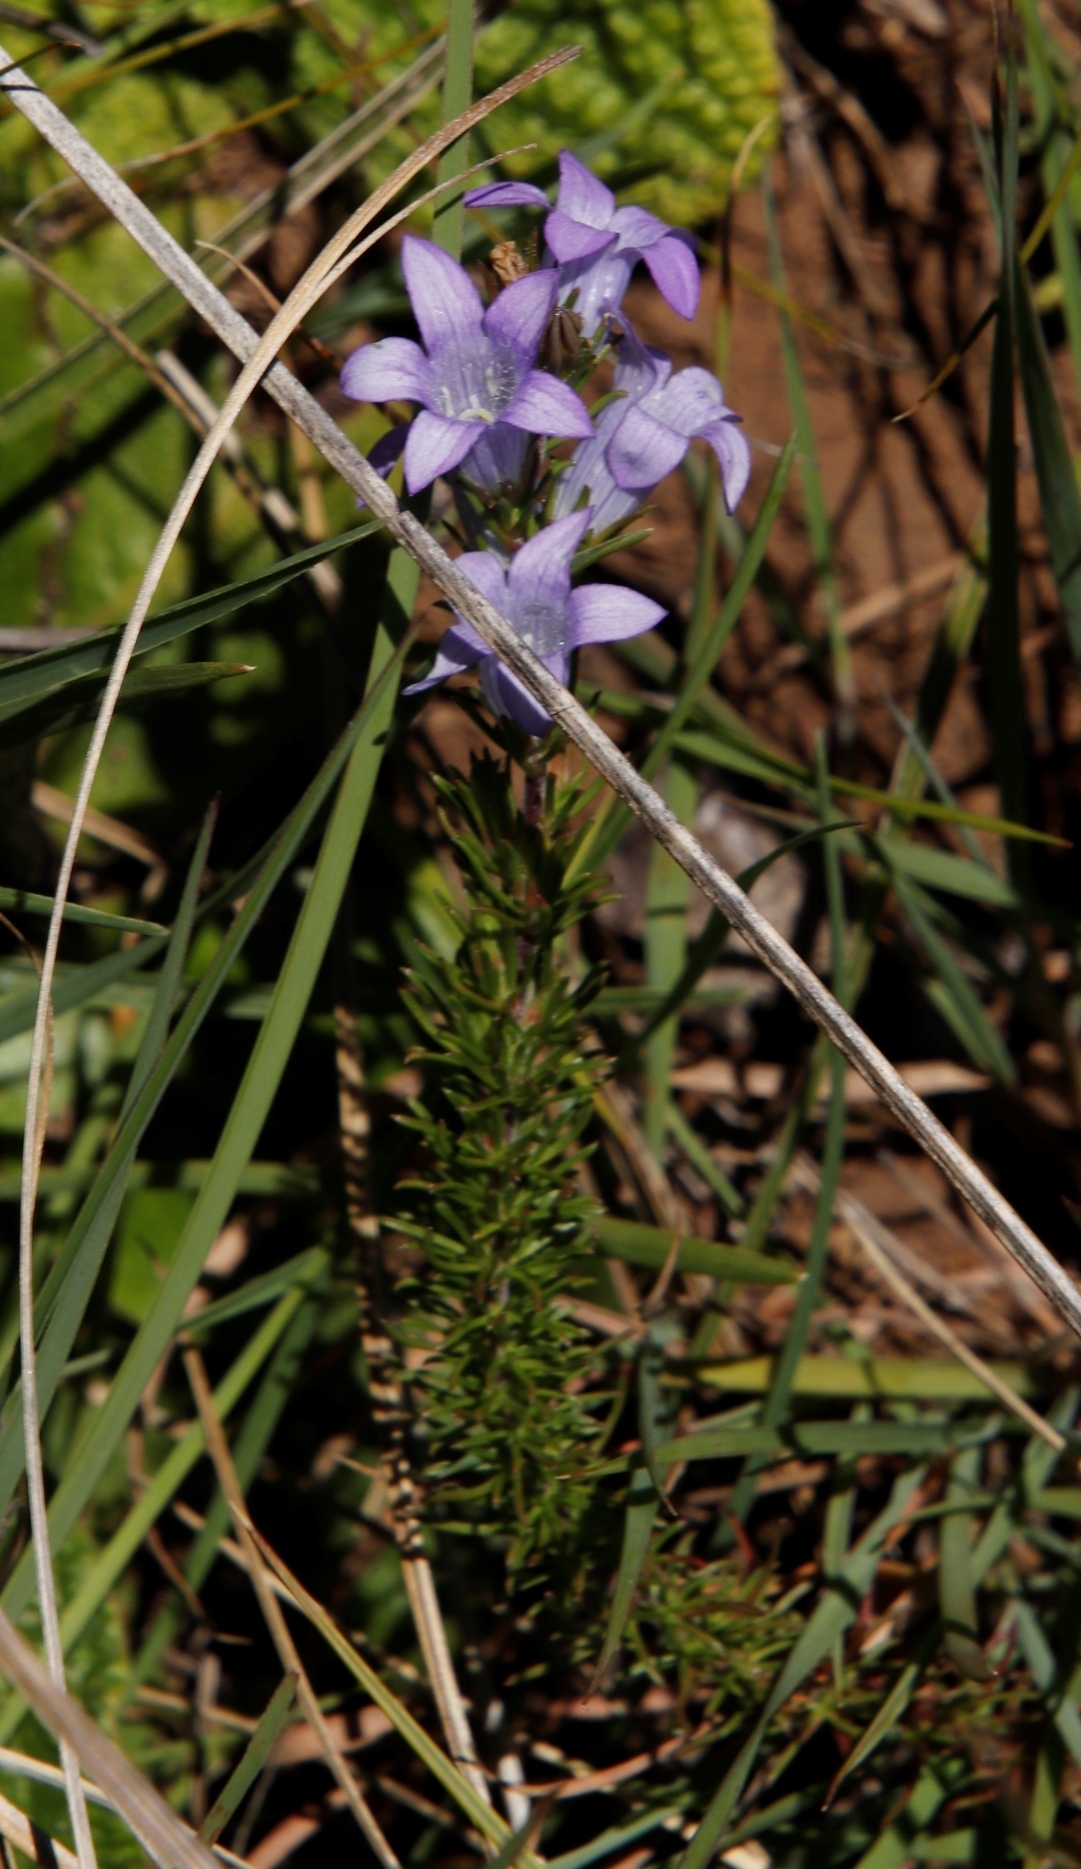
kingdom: Plantae
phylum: Tracheophyta
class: Magnoliopsida
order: Asterales
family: Campanulaceae
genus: Wahlenbergia
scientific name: Wahlenbergia fasciculata
